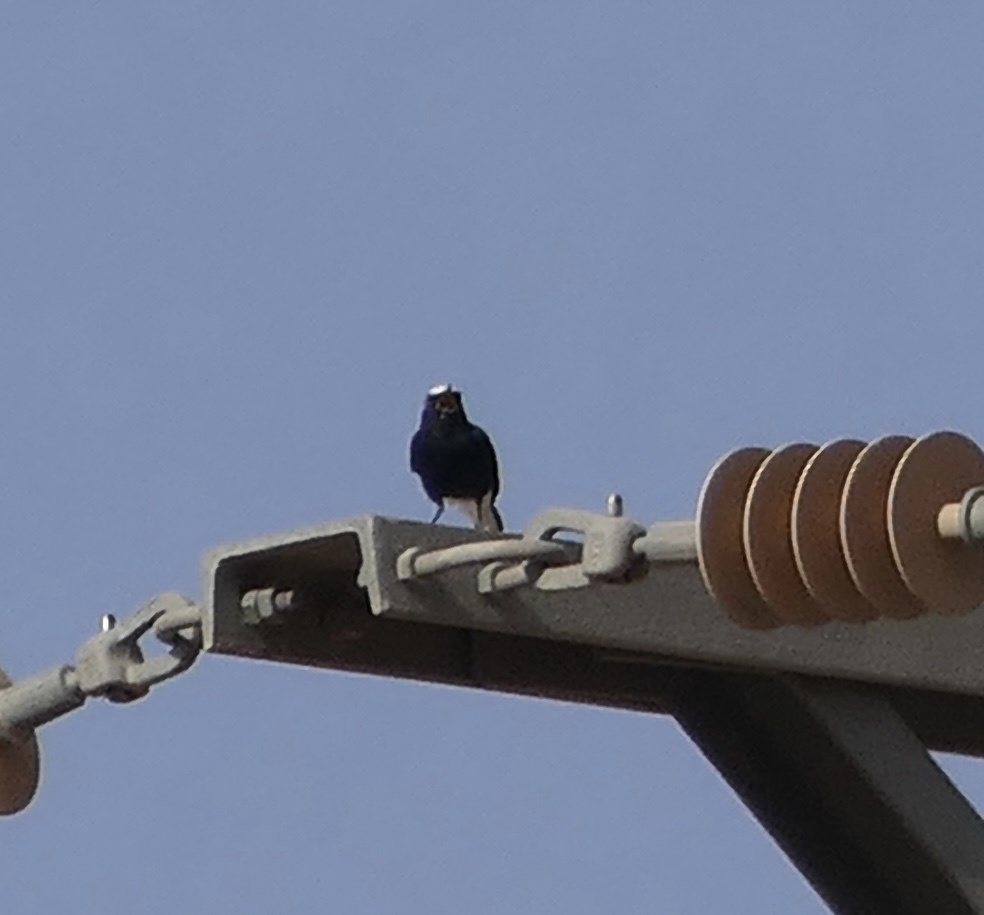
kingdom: Animalia
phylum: Chordata
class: Aves
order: Passeriformes
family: Muscicapidae
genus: Oenanthe
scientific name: Oenanthe leucopyga
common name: White-crowned wheatear
